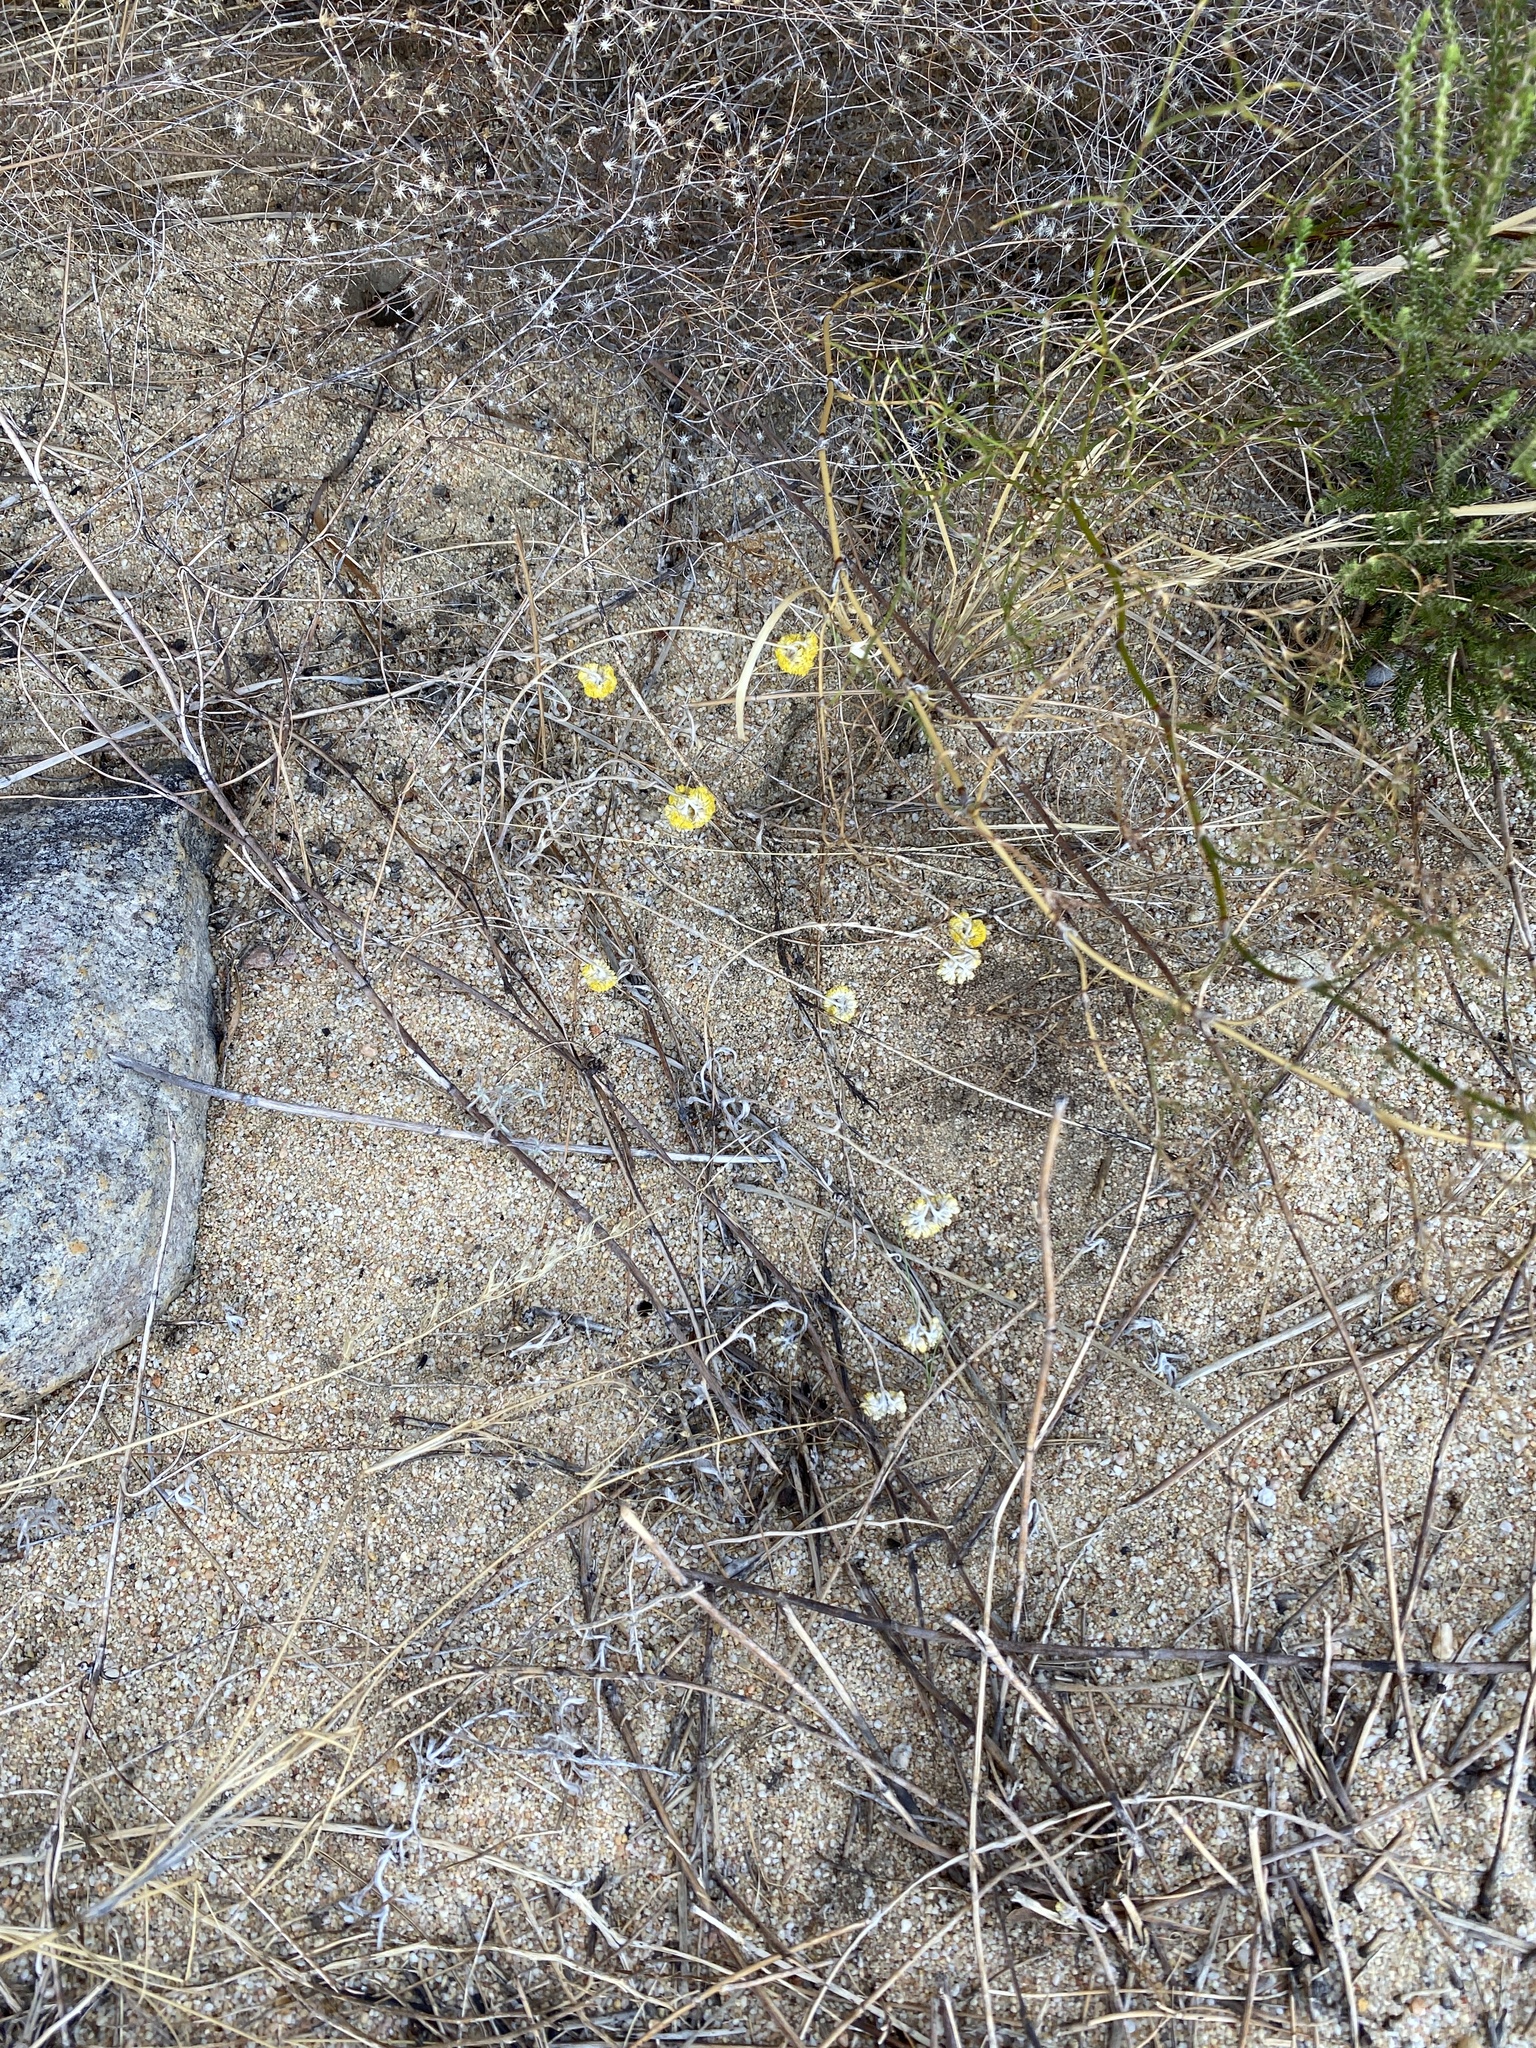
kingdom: Plantae
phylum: Tracheophyta
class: Magnoliopsida
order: Asterales
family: Asteraceae
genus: Helichrysum
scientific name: Helichrysum moeserianum
